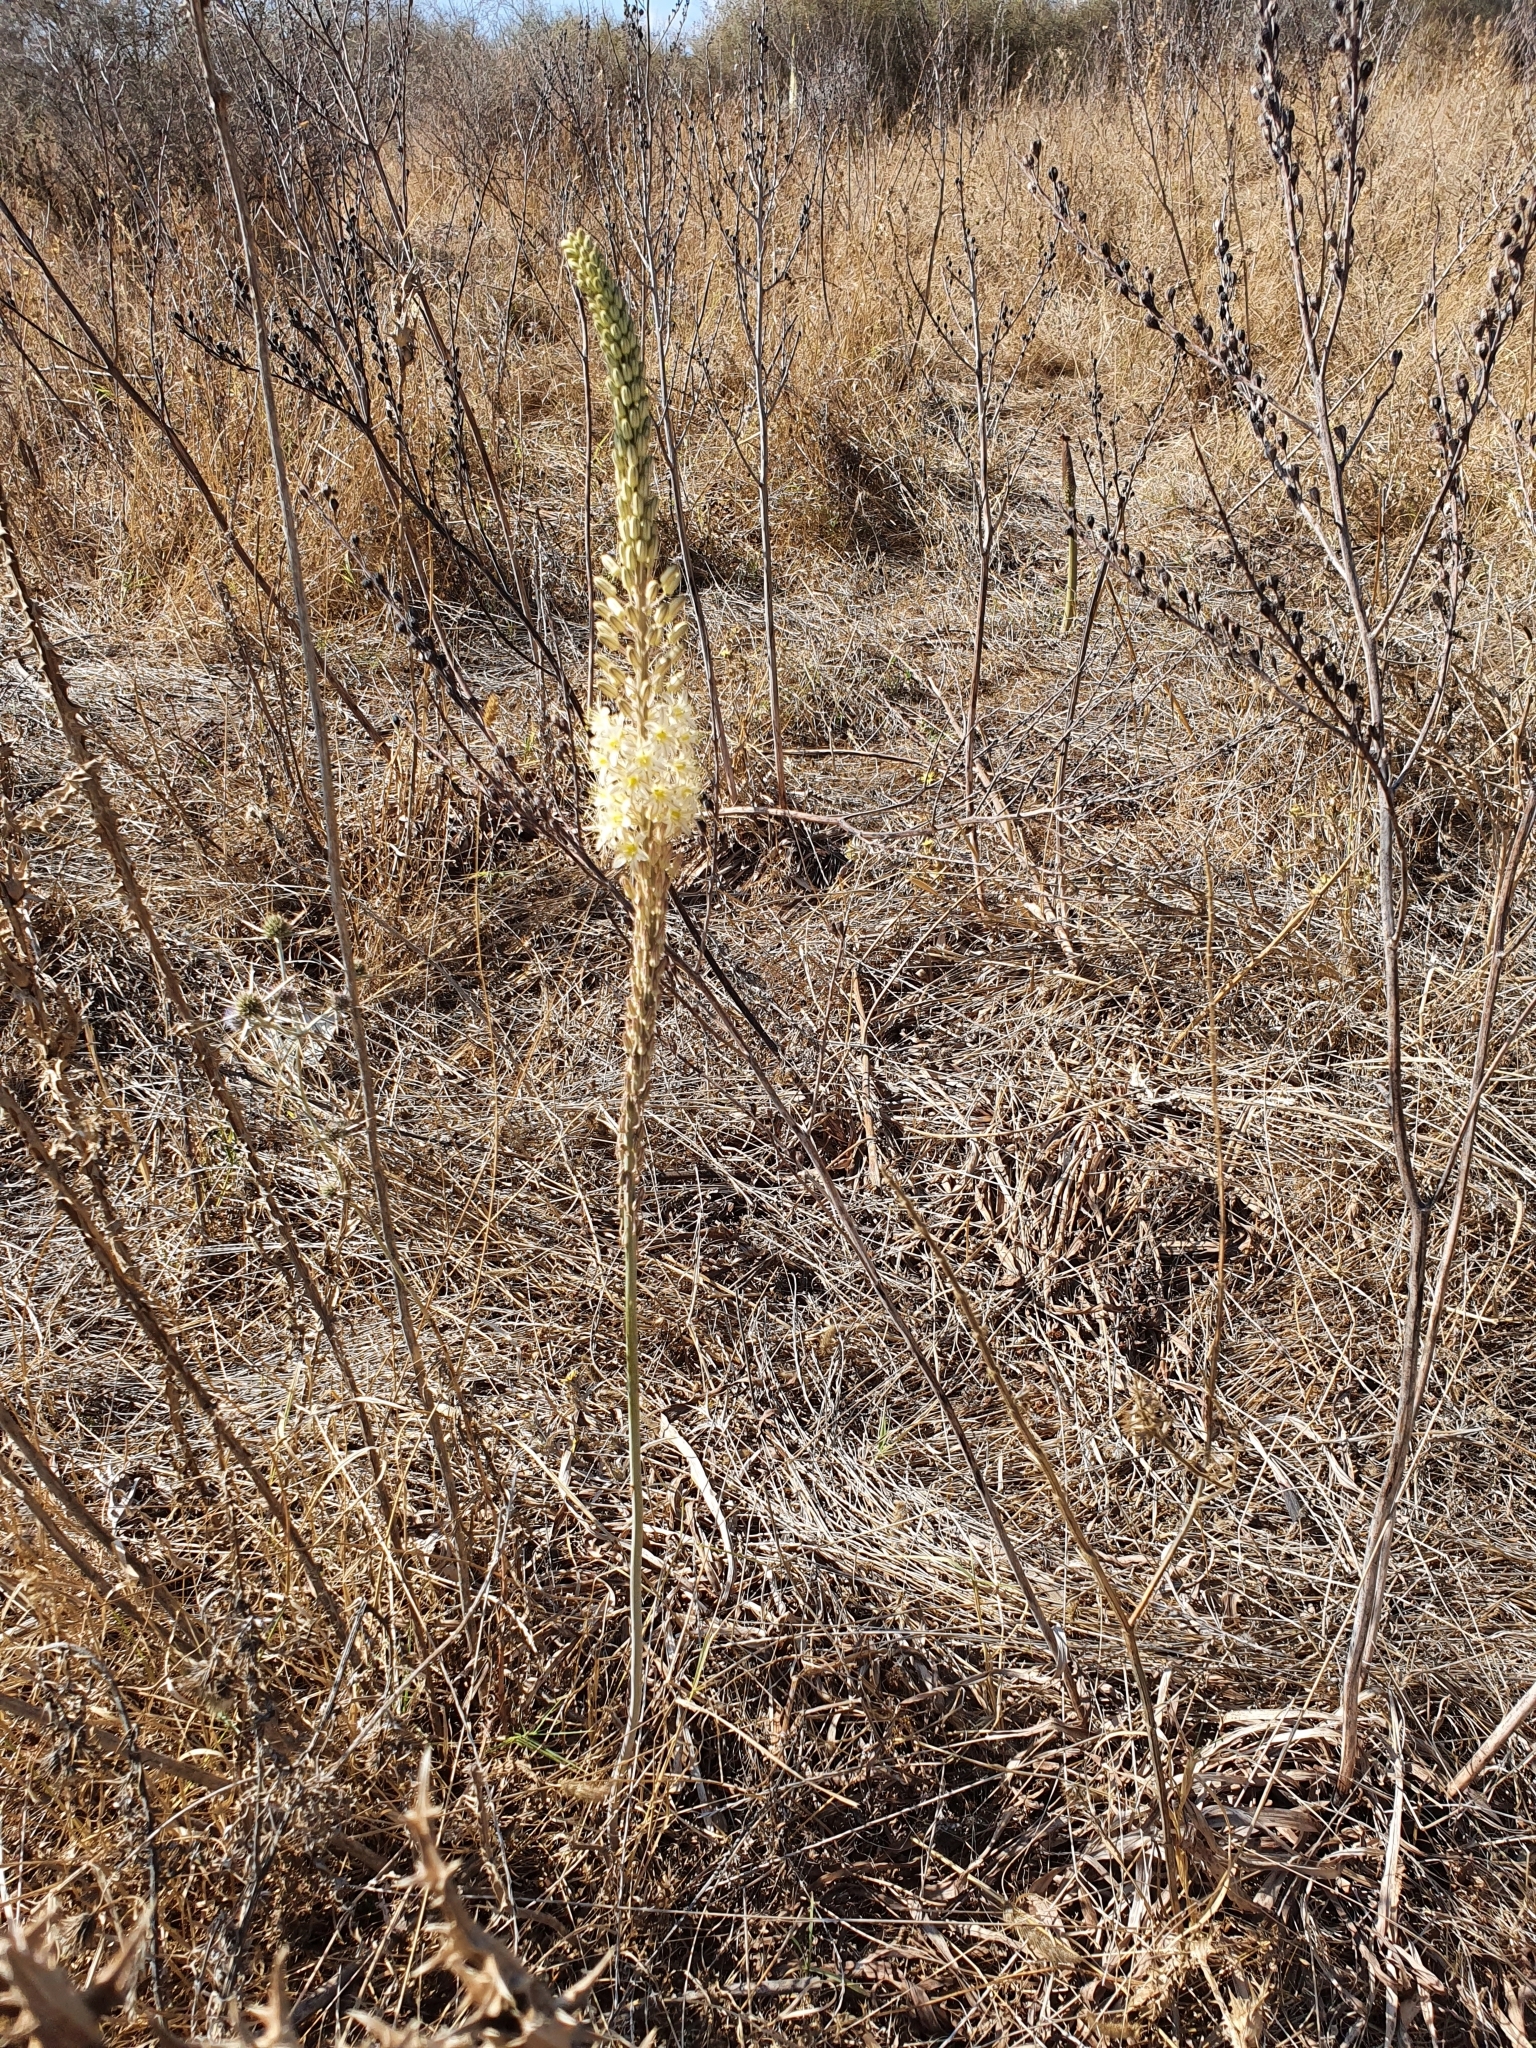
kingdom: Plantae
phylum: Tracheophyta
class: Liliopsida
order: Asparagales
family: Asparagaceae
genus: Drimia
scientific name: Drimia anthericoides
